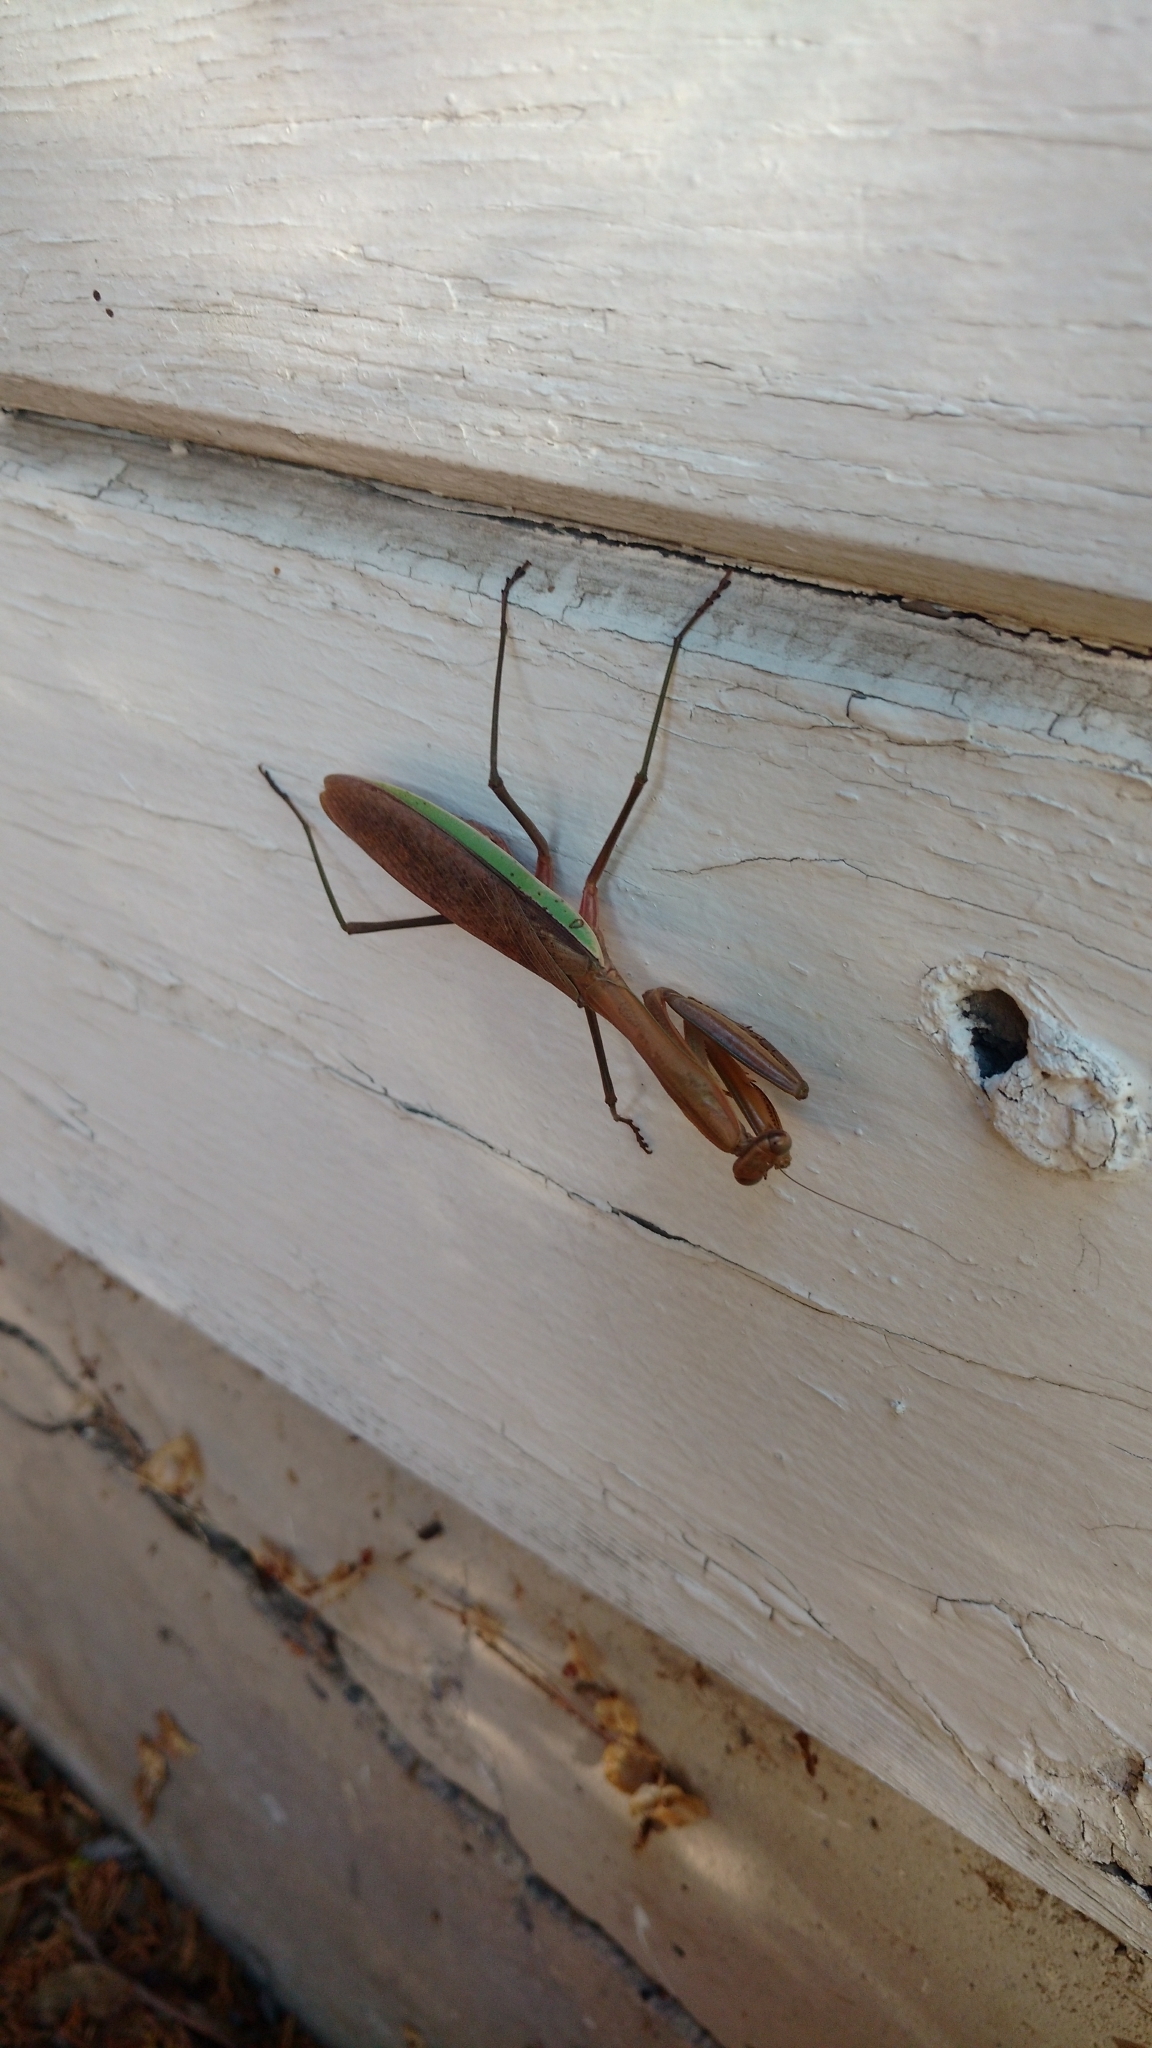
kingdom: Animalia
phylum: Arthropoda
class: Insecta
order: Mantodea
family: Mantidae
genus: Tenodera
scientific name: Tenodera sinensis
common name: Chinese mantis
